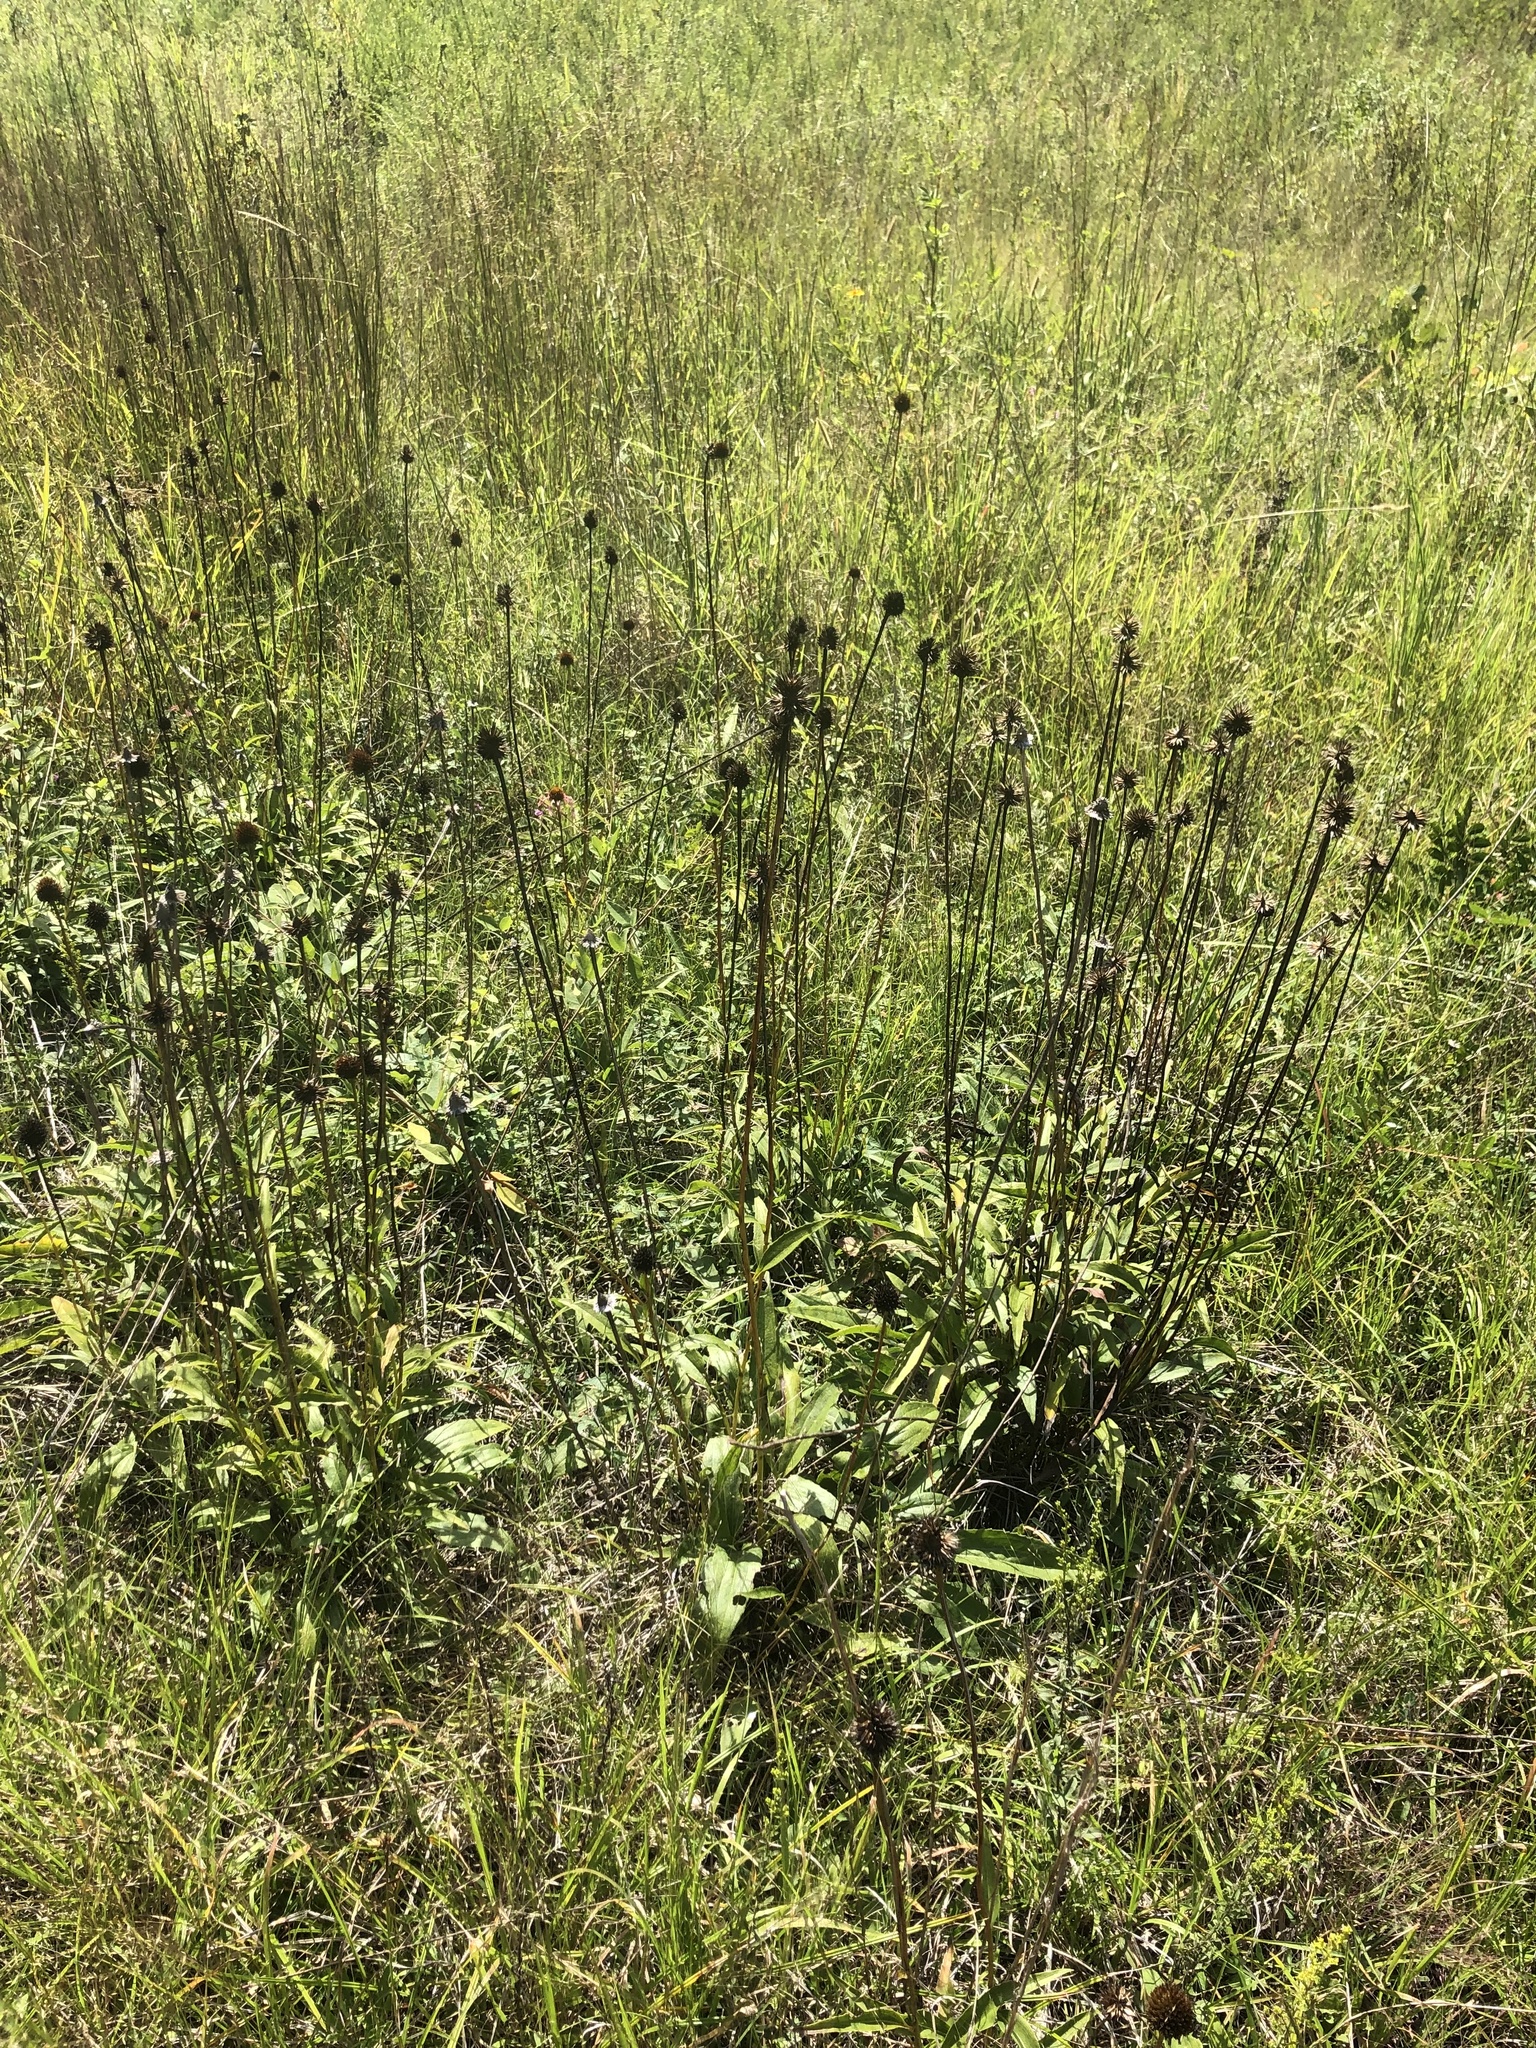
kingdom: Plantae
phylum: Tracheophyta
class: Magnoliopsida
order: Asterales
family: Asteraceae
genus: Echinacea
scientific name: Echinacea laevigata
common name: Smooth coneflower
